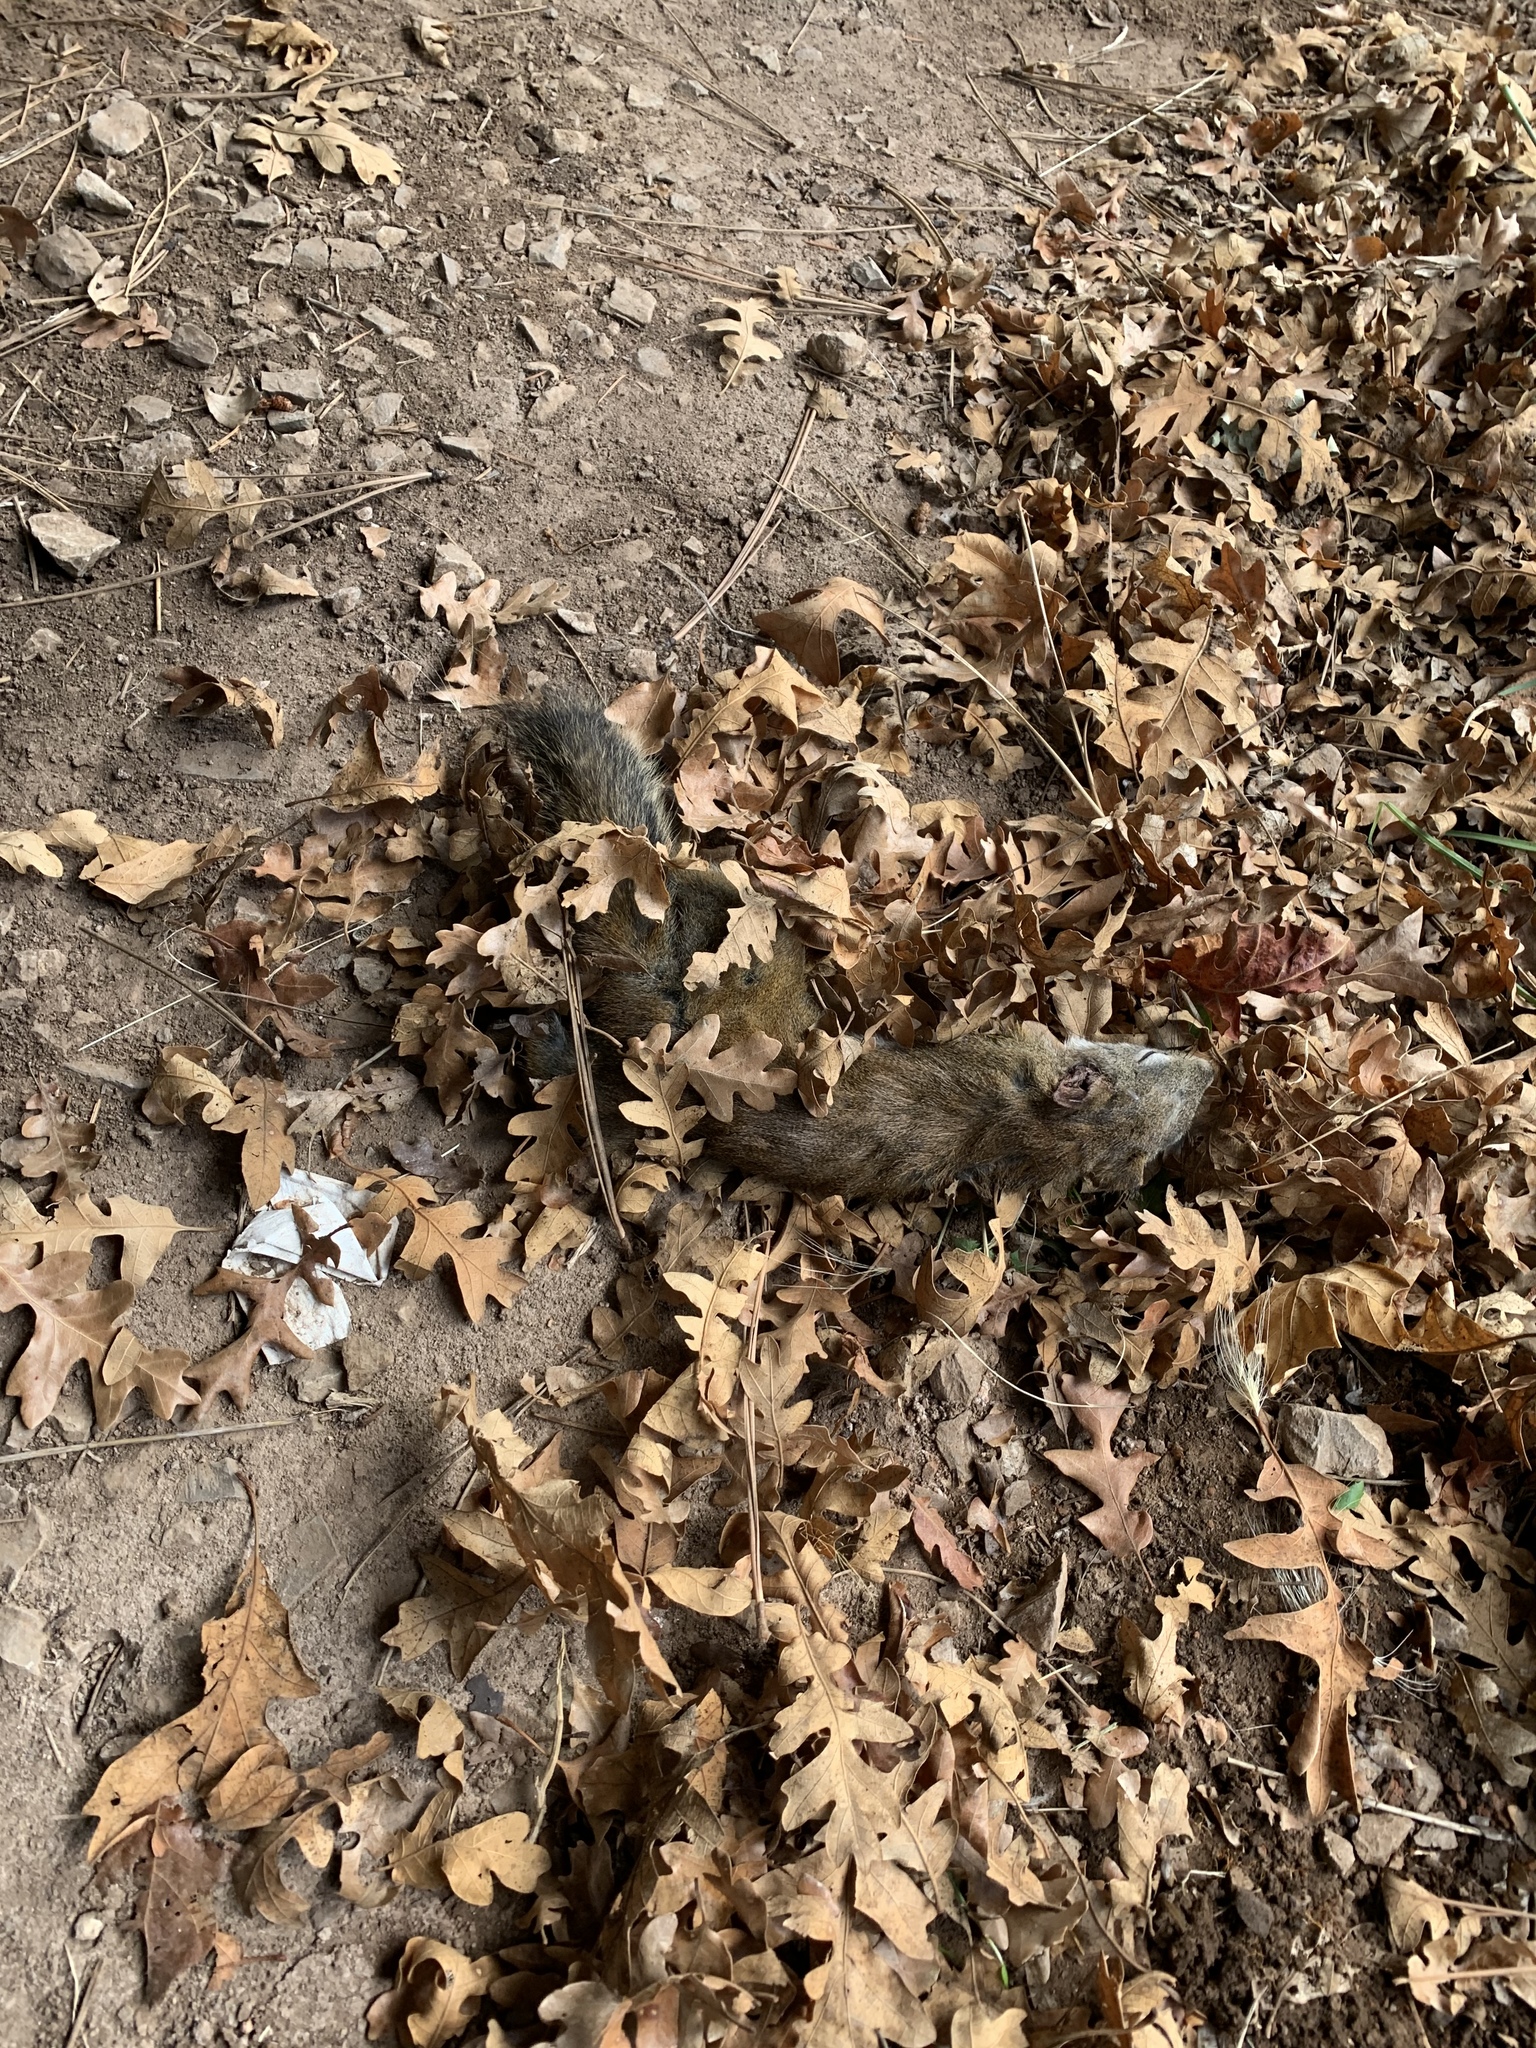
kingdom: Animalia
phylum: Chordata
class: Mammalia
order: Rodentia
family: Sciuridae
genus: Tamiasciurus
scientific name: Tamiasciurus hudsonicus
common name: Red squirrel
